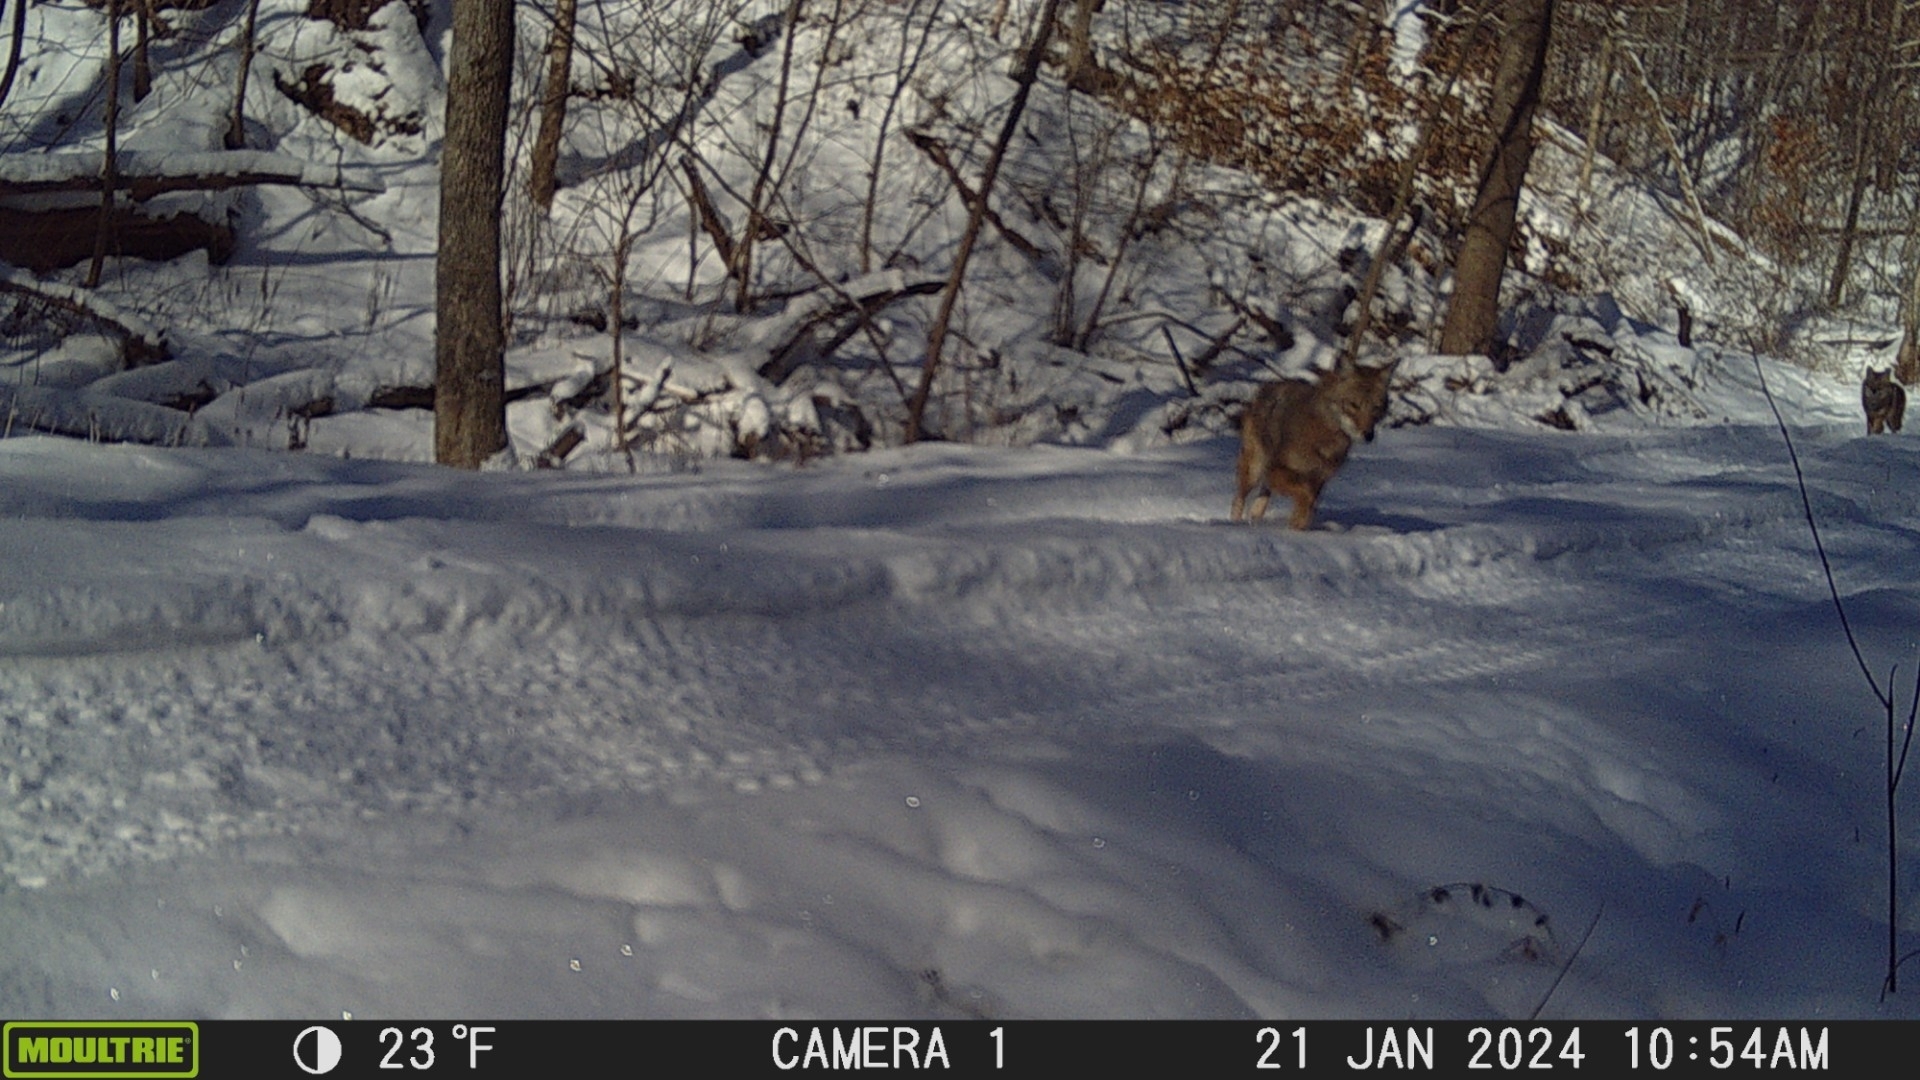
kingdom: Animalia
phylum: Chordata
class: Mammalia
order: Carnivora
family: Canidae
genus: Canis
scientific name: Canis latrans
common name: Coyote
